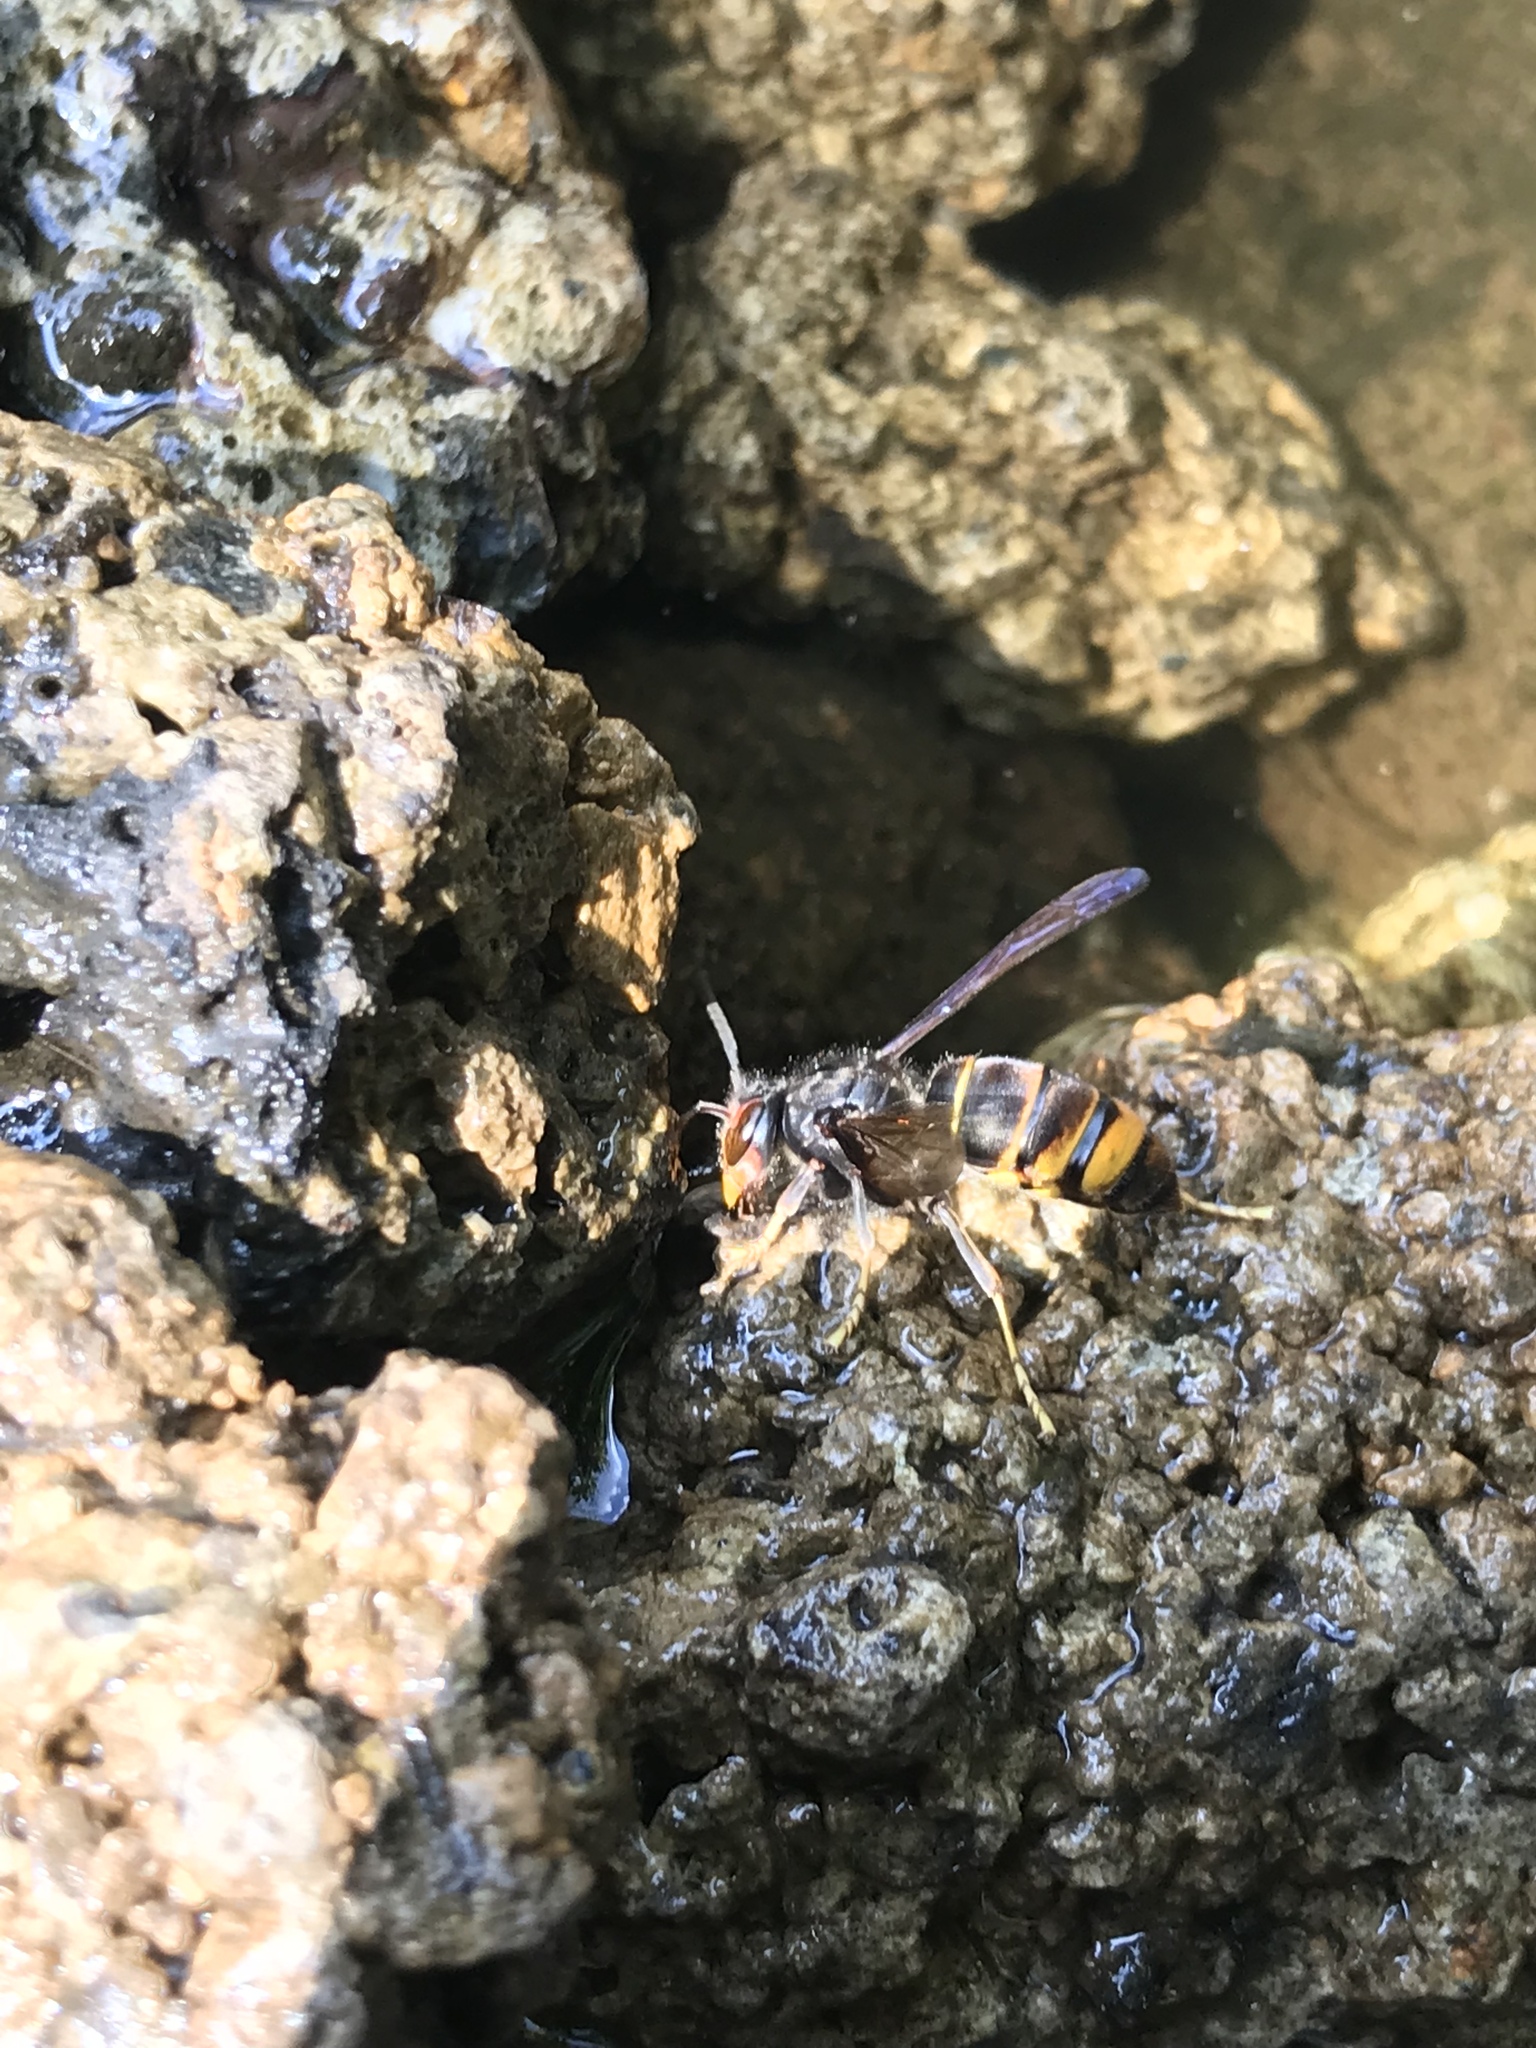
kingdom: Animalia
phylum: Arthropoda
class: Insecta
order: Hymenoptera
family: Vespidae
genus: Vespa
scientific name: Vespa velutina
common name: Asian hornet
